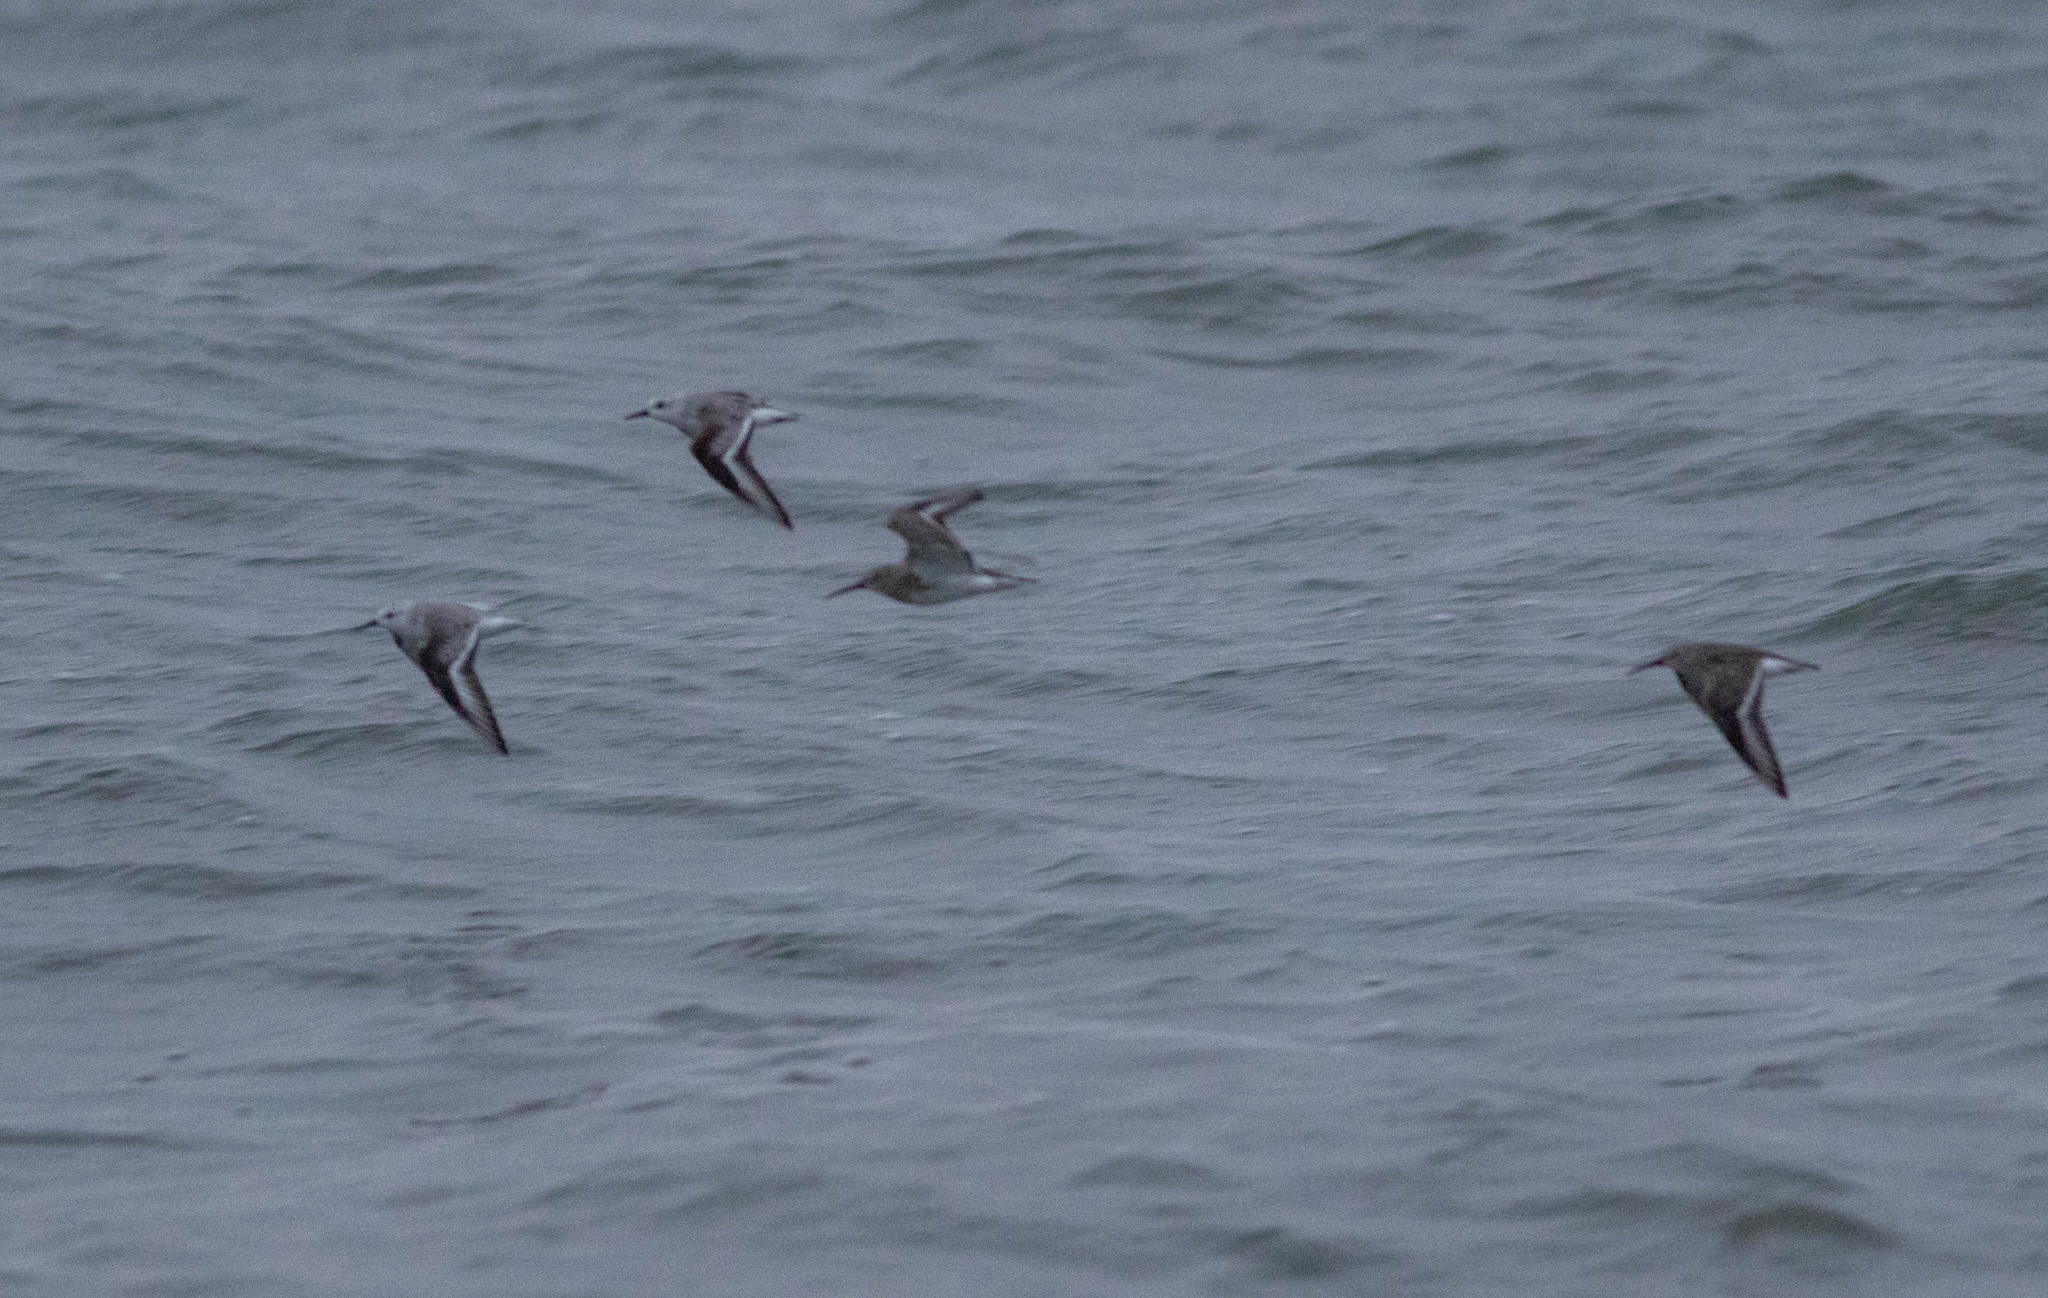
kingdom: Animalia
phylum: Chordata
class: Aves
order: Charadriiformes
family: Scolopacidae
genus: Calidris
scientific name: Calidris alba
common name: Sanderling
